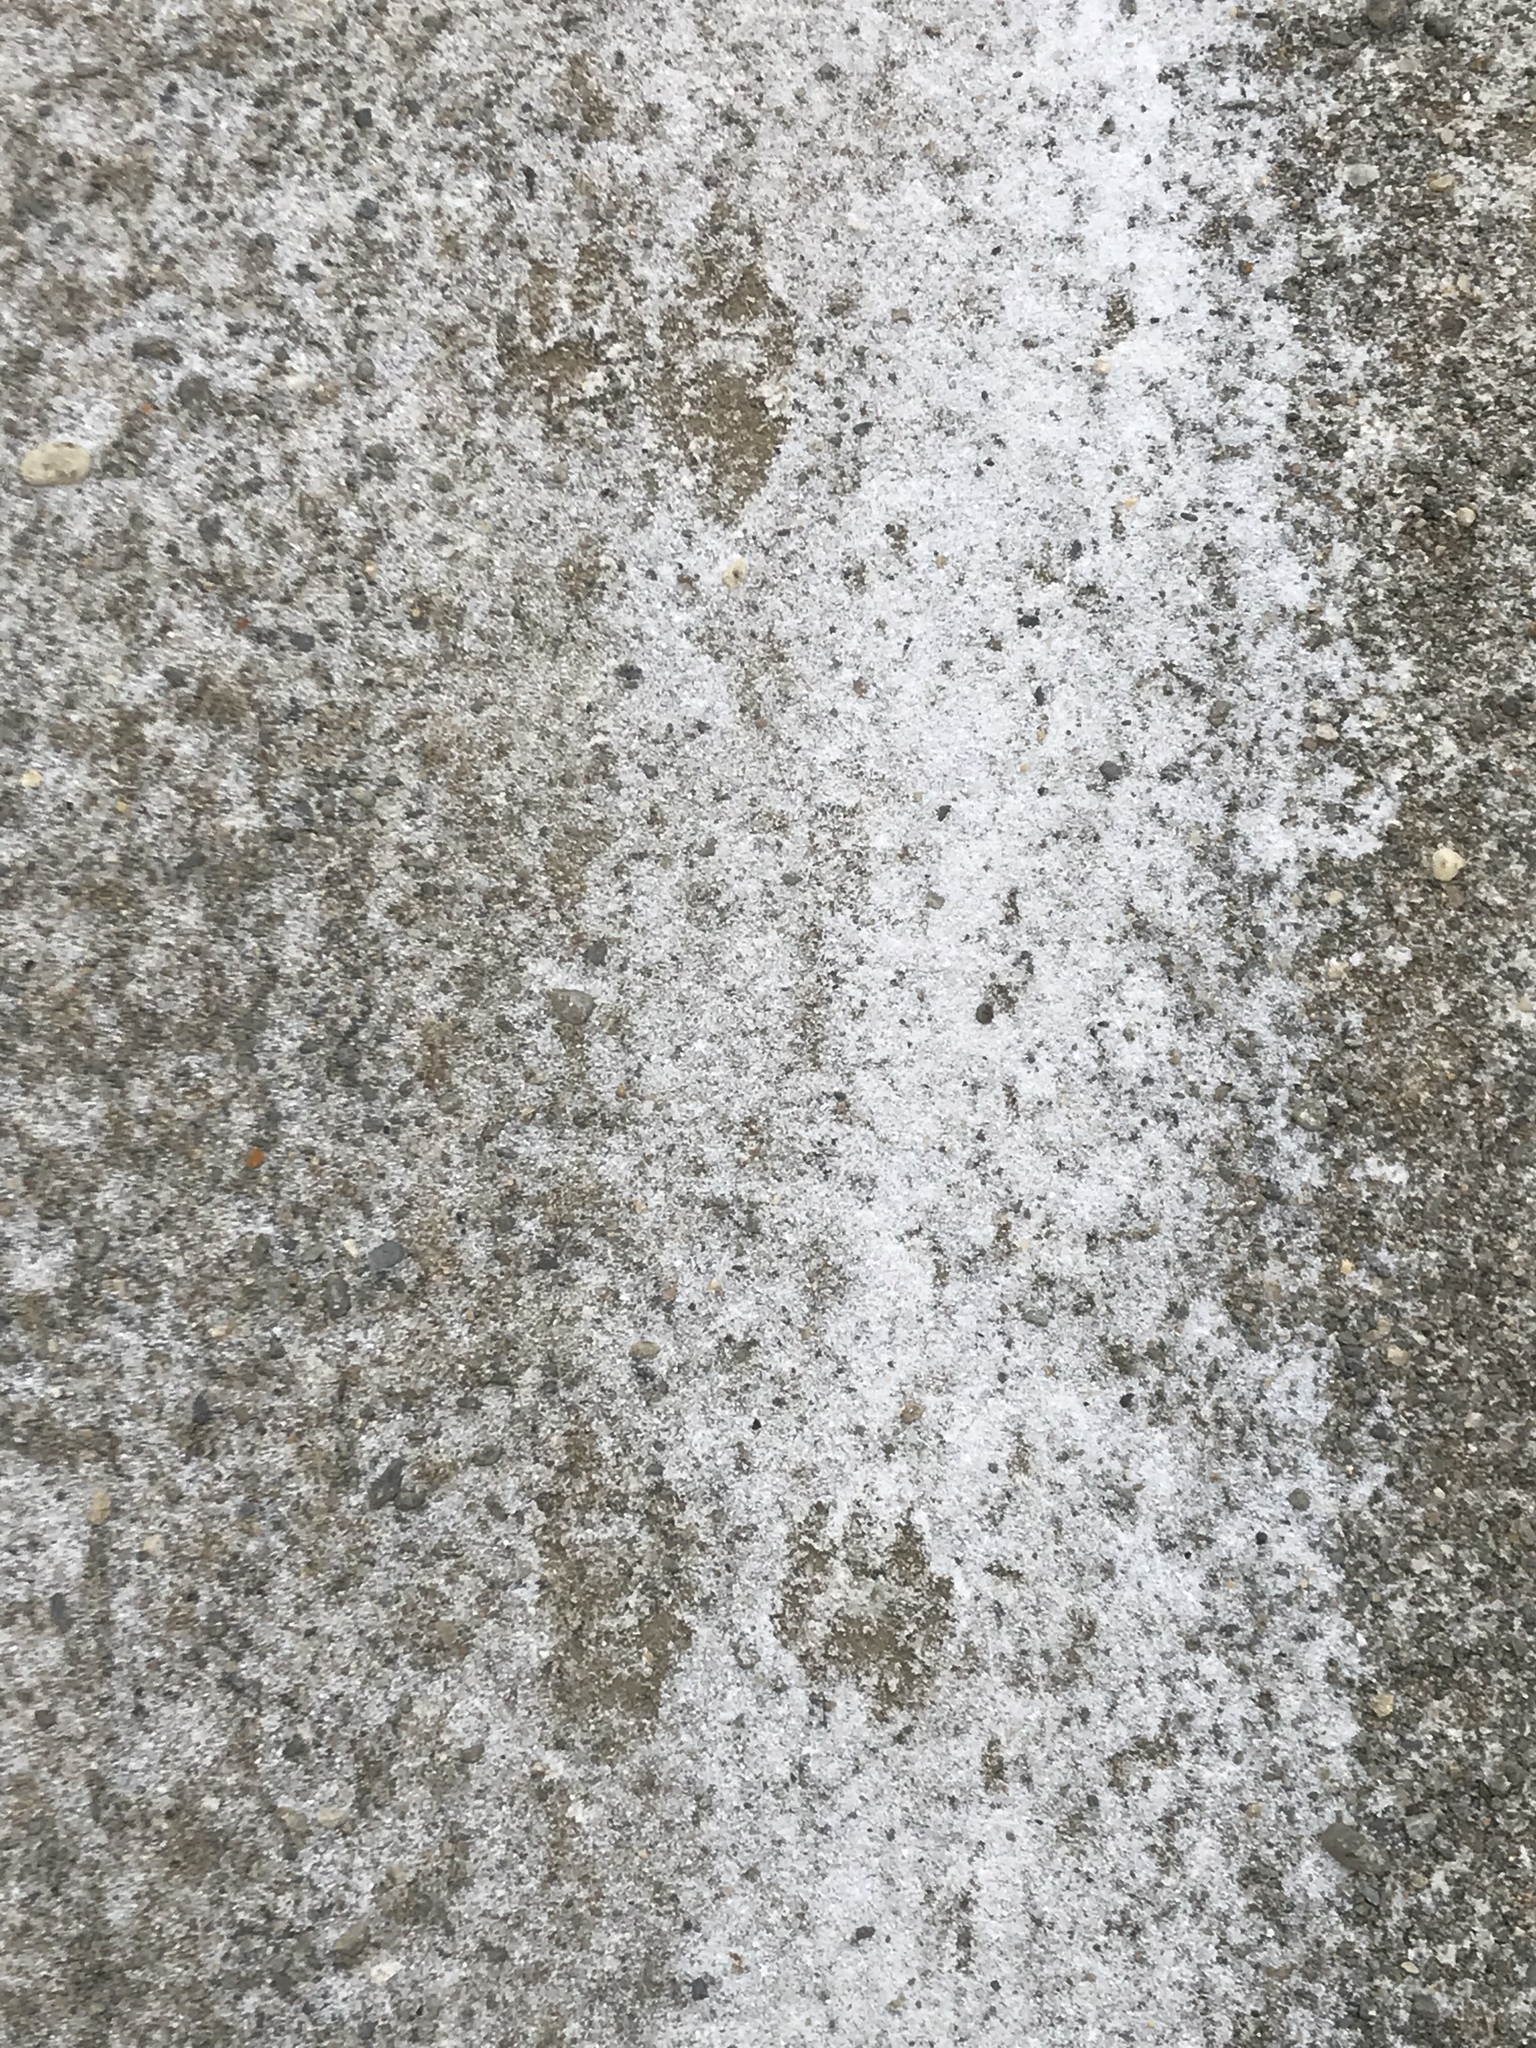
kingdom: Animalia
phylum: Chordata
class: Mammalia
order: Carnivora
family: Procyonidae
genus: Procyon
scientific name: Procyon lotor
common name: Raccoon
